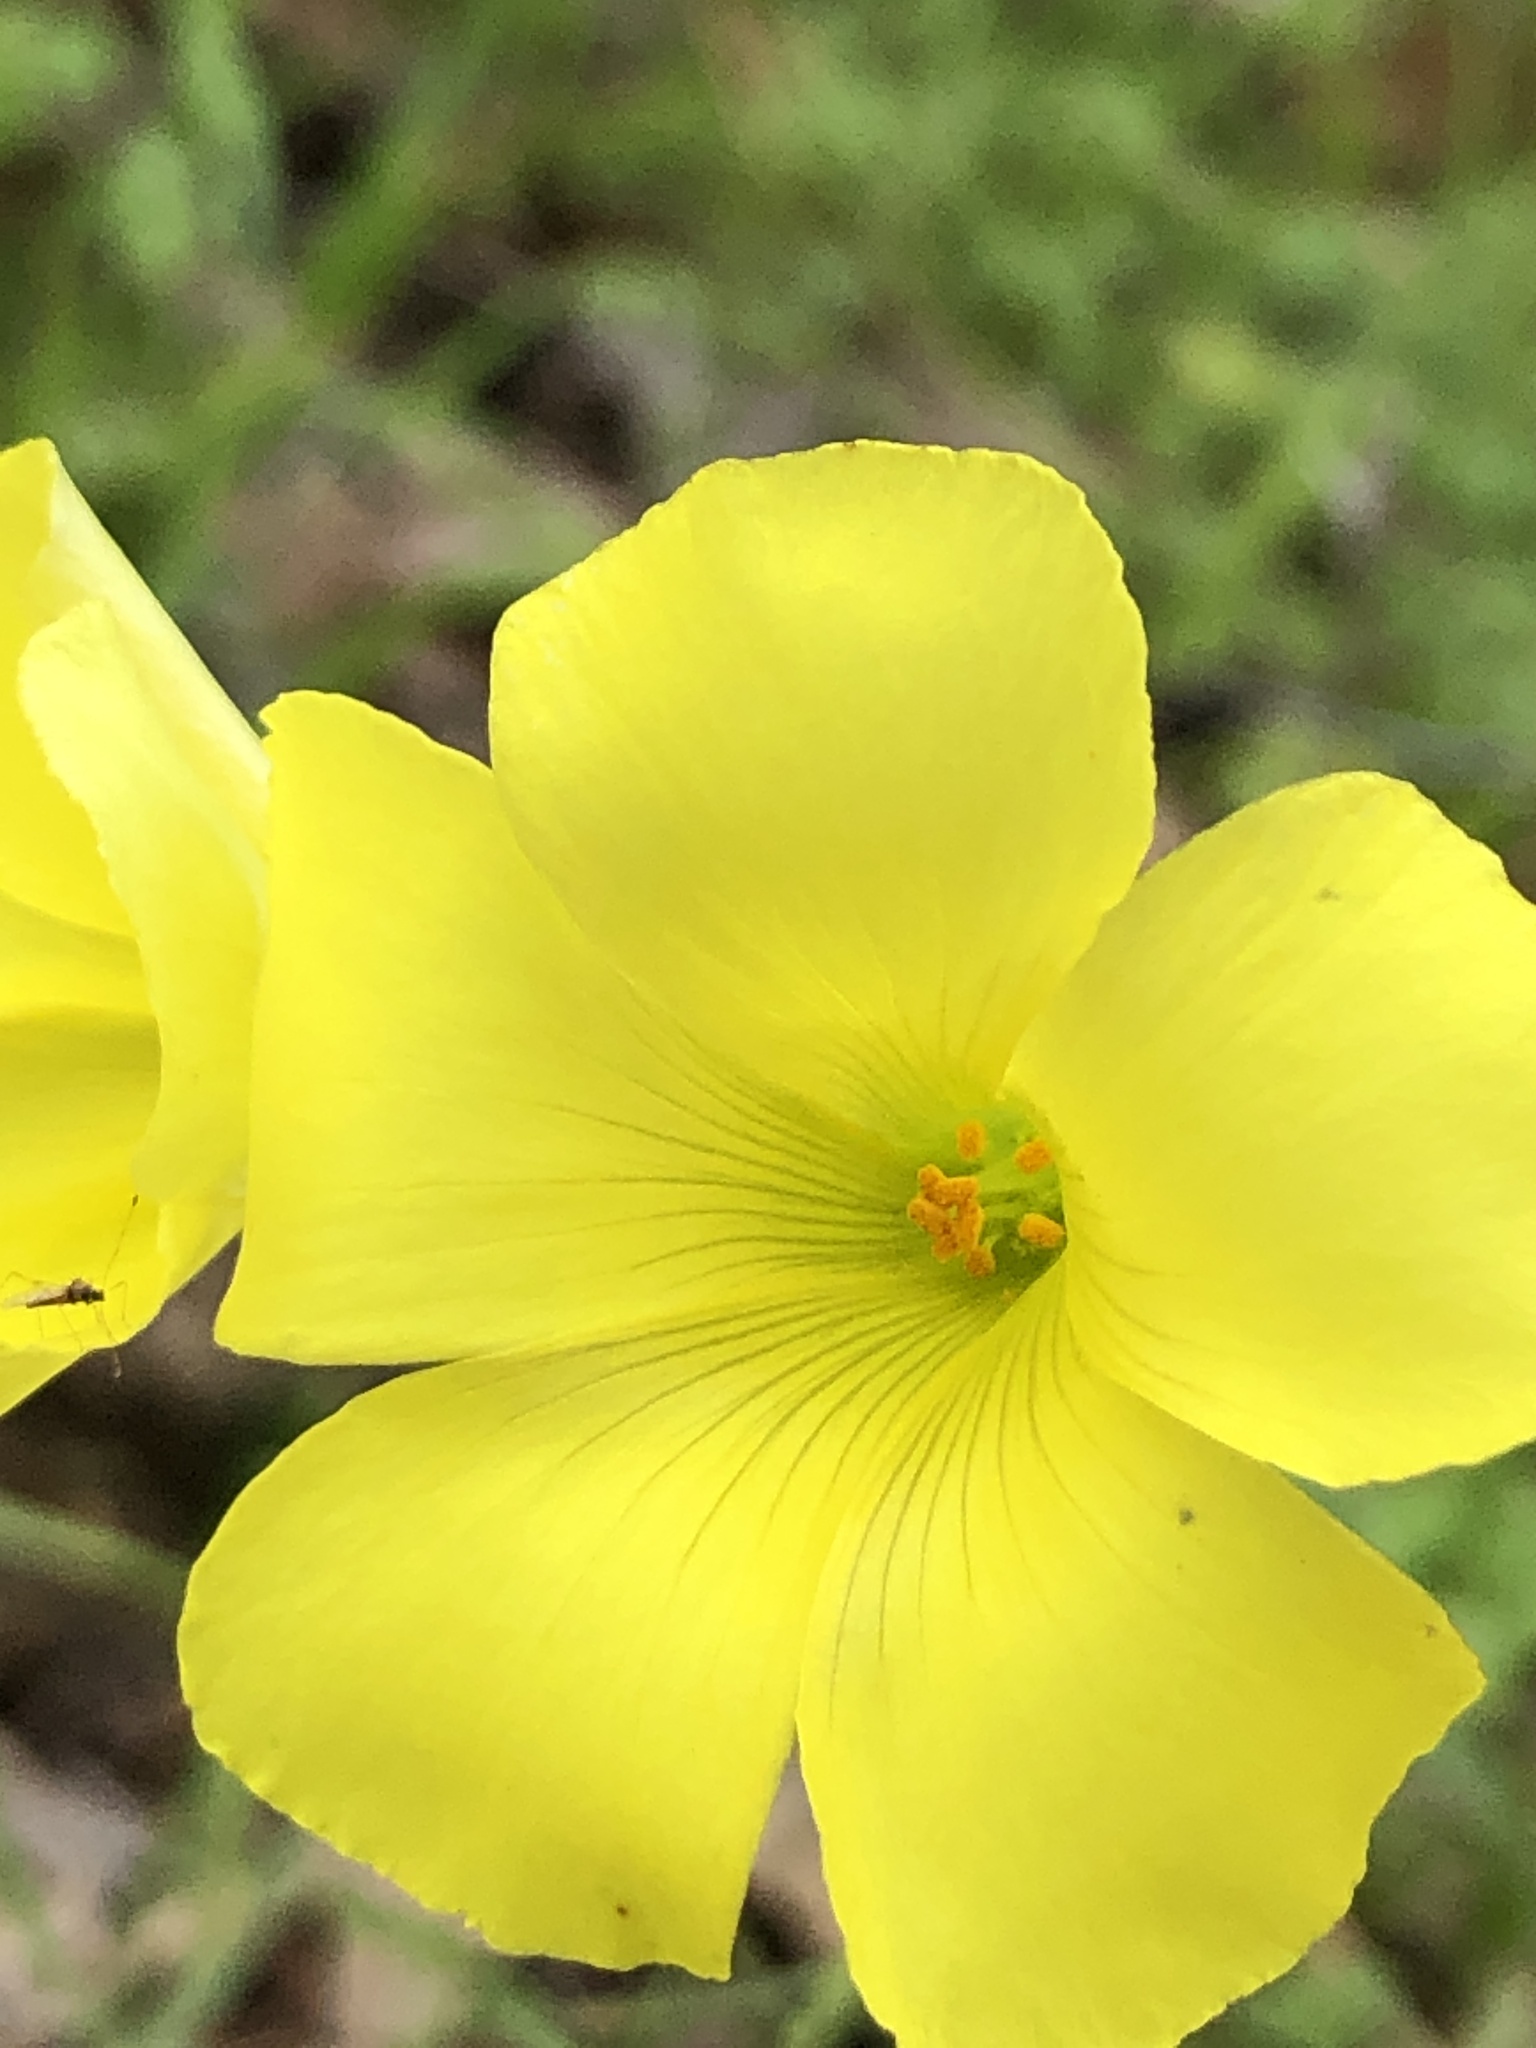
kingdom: Plantae
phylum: Tracheophyta
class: Magnoliopsida
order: Oxalidales
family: Oxalidaceae
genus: Oxalis
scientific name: Oxalis pes-caprae
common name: Bermuda-buttercup
